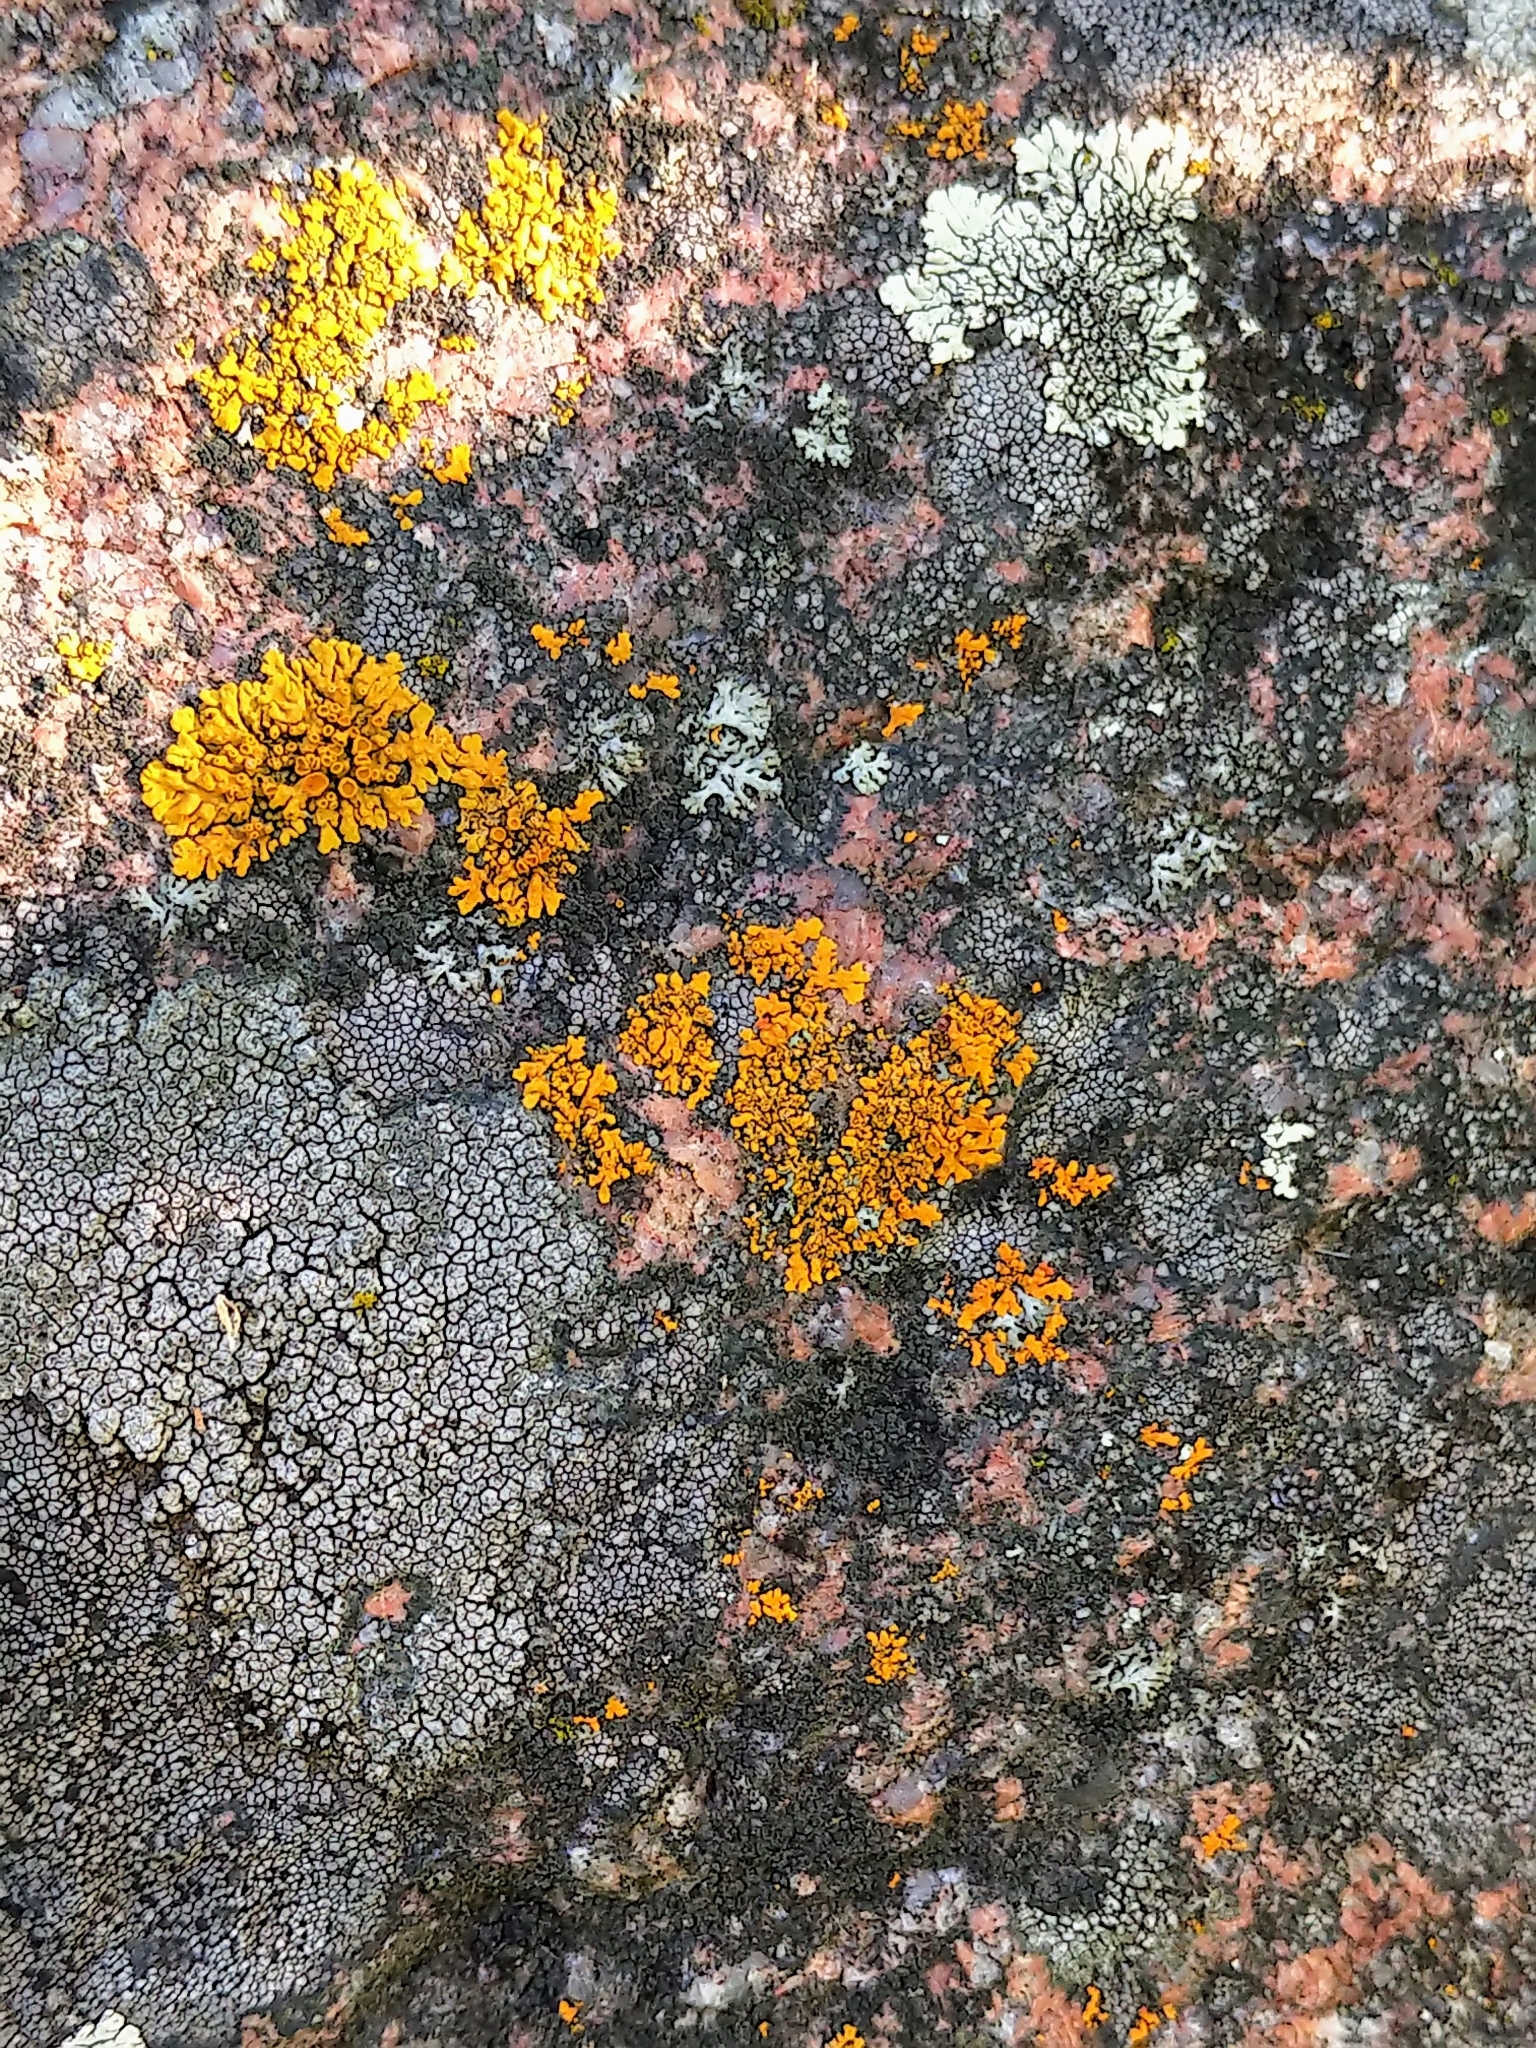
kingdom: Fungi
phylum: Ascomycota
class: Lecanoromycetes
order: Teloschistales
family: Teloschistaceae
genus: Xanthoria
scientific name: Xanthoria elegans
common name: Elegant sunburst lichen
